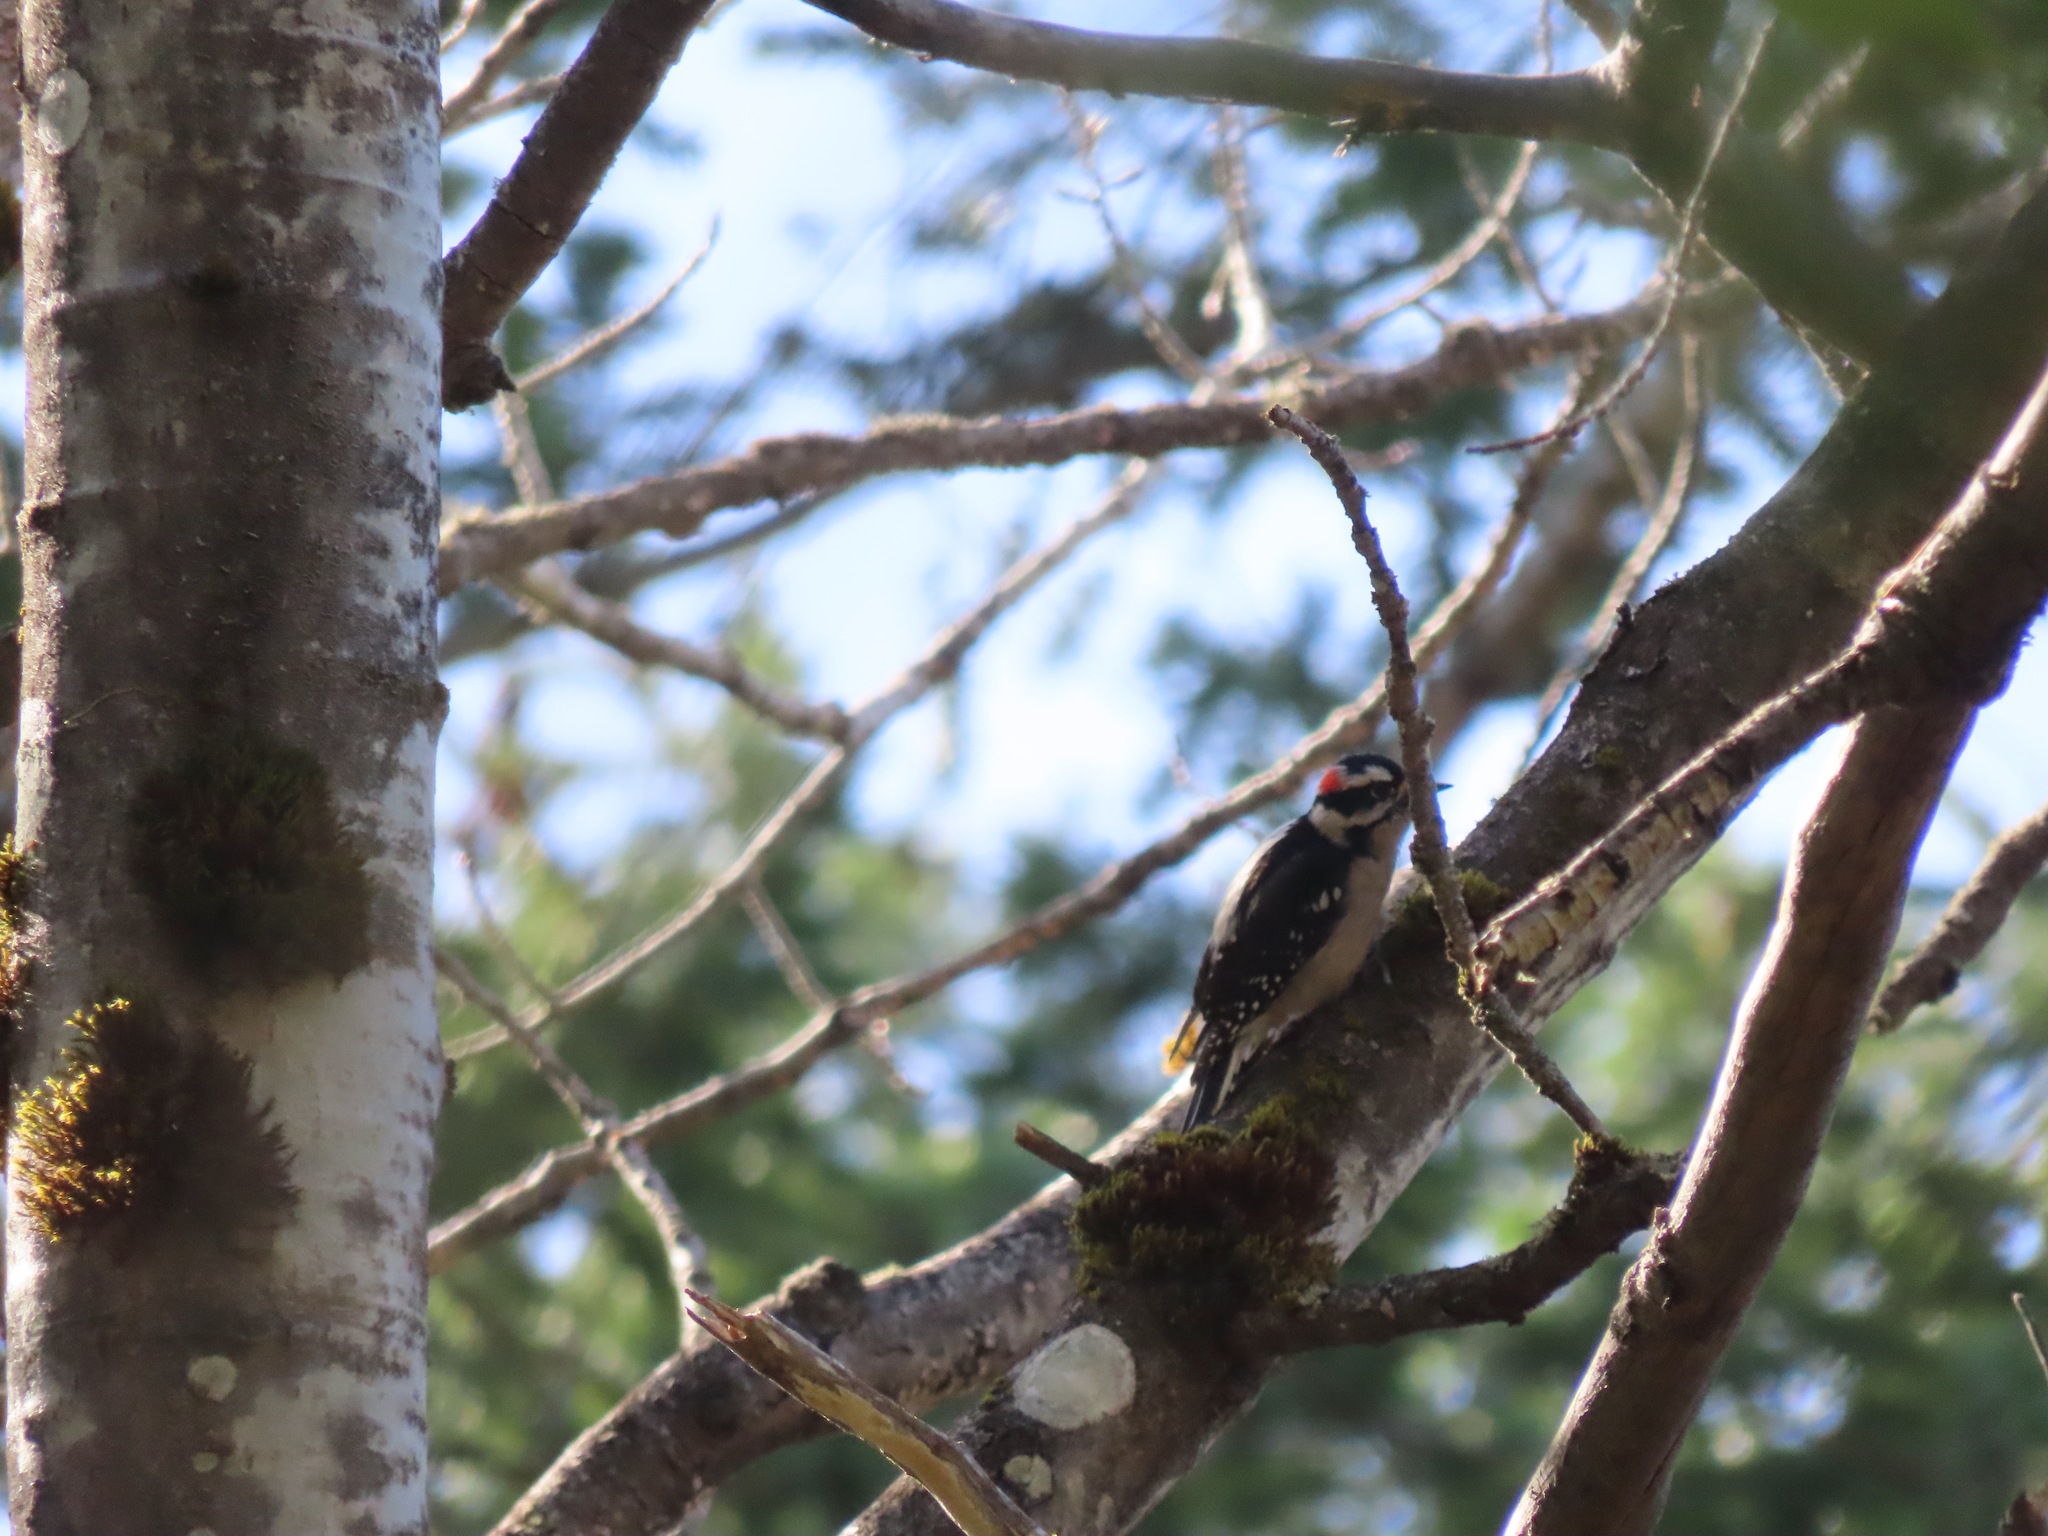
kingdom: Animalia
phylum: Chordata
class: Aves
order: Piciformes
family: Picidae
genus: Dryobates
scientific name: Dryobates pubescens
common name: Downy woodpecker
